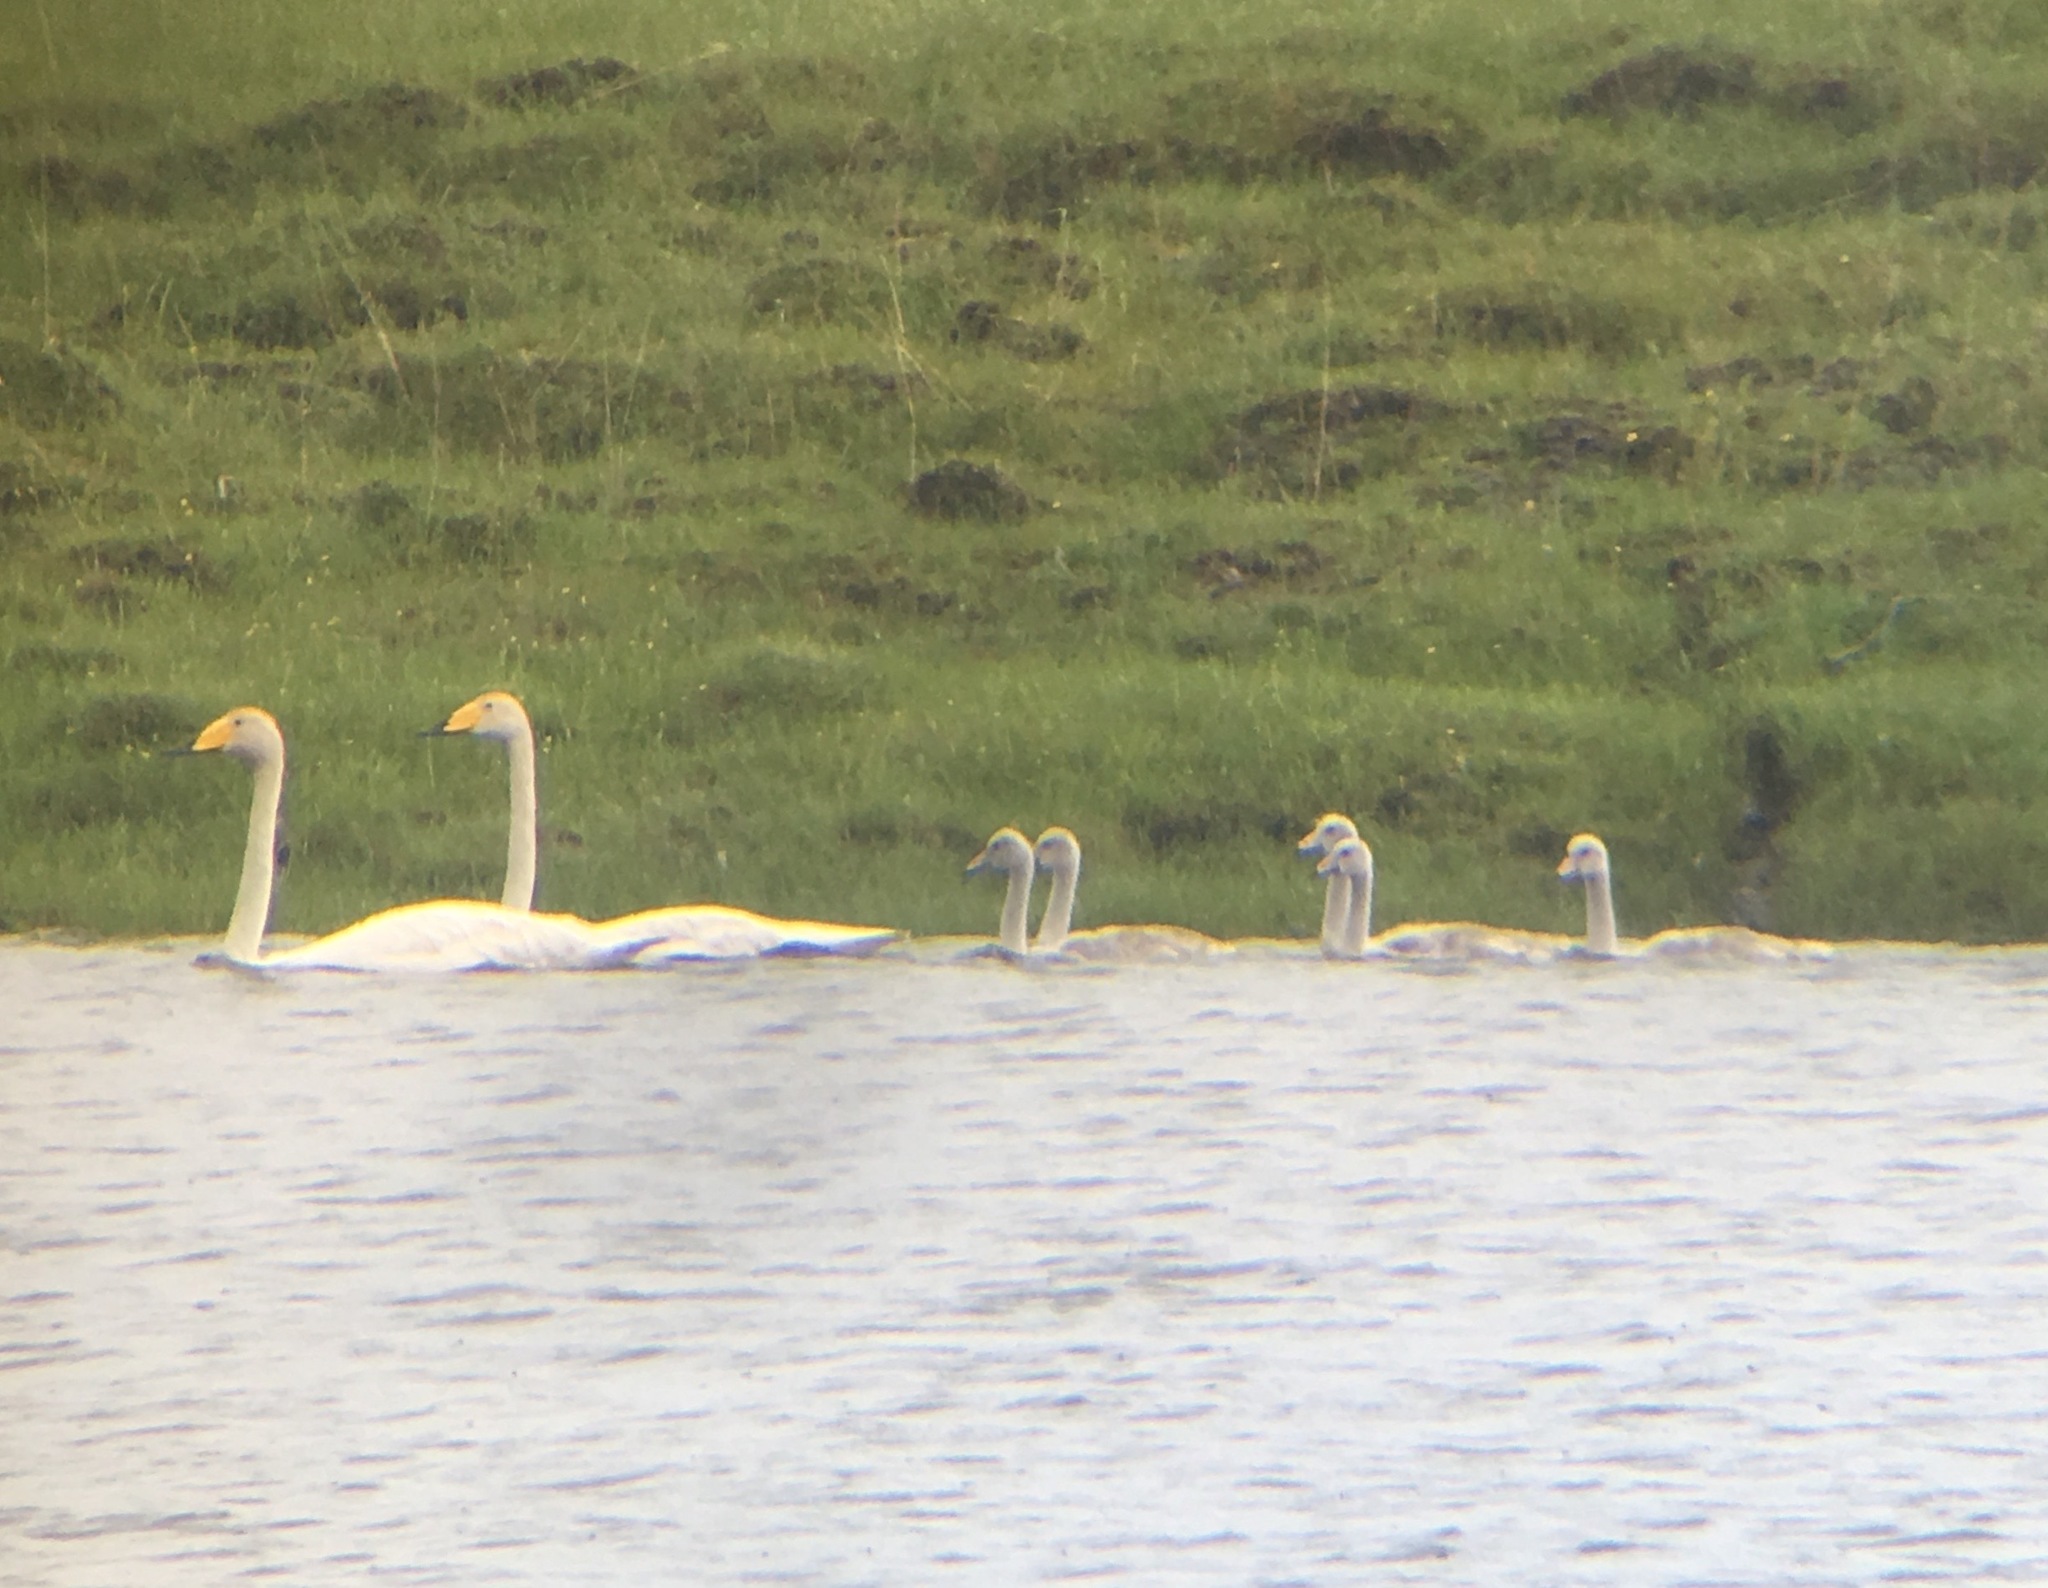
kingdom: Animalia
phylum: Chordata
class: Aves
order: Anseriformes
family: Anatidae
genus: Cygnus
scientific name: Cygnus cygnus
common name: Whooper swan
